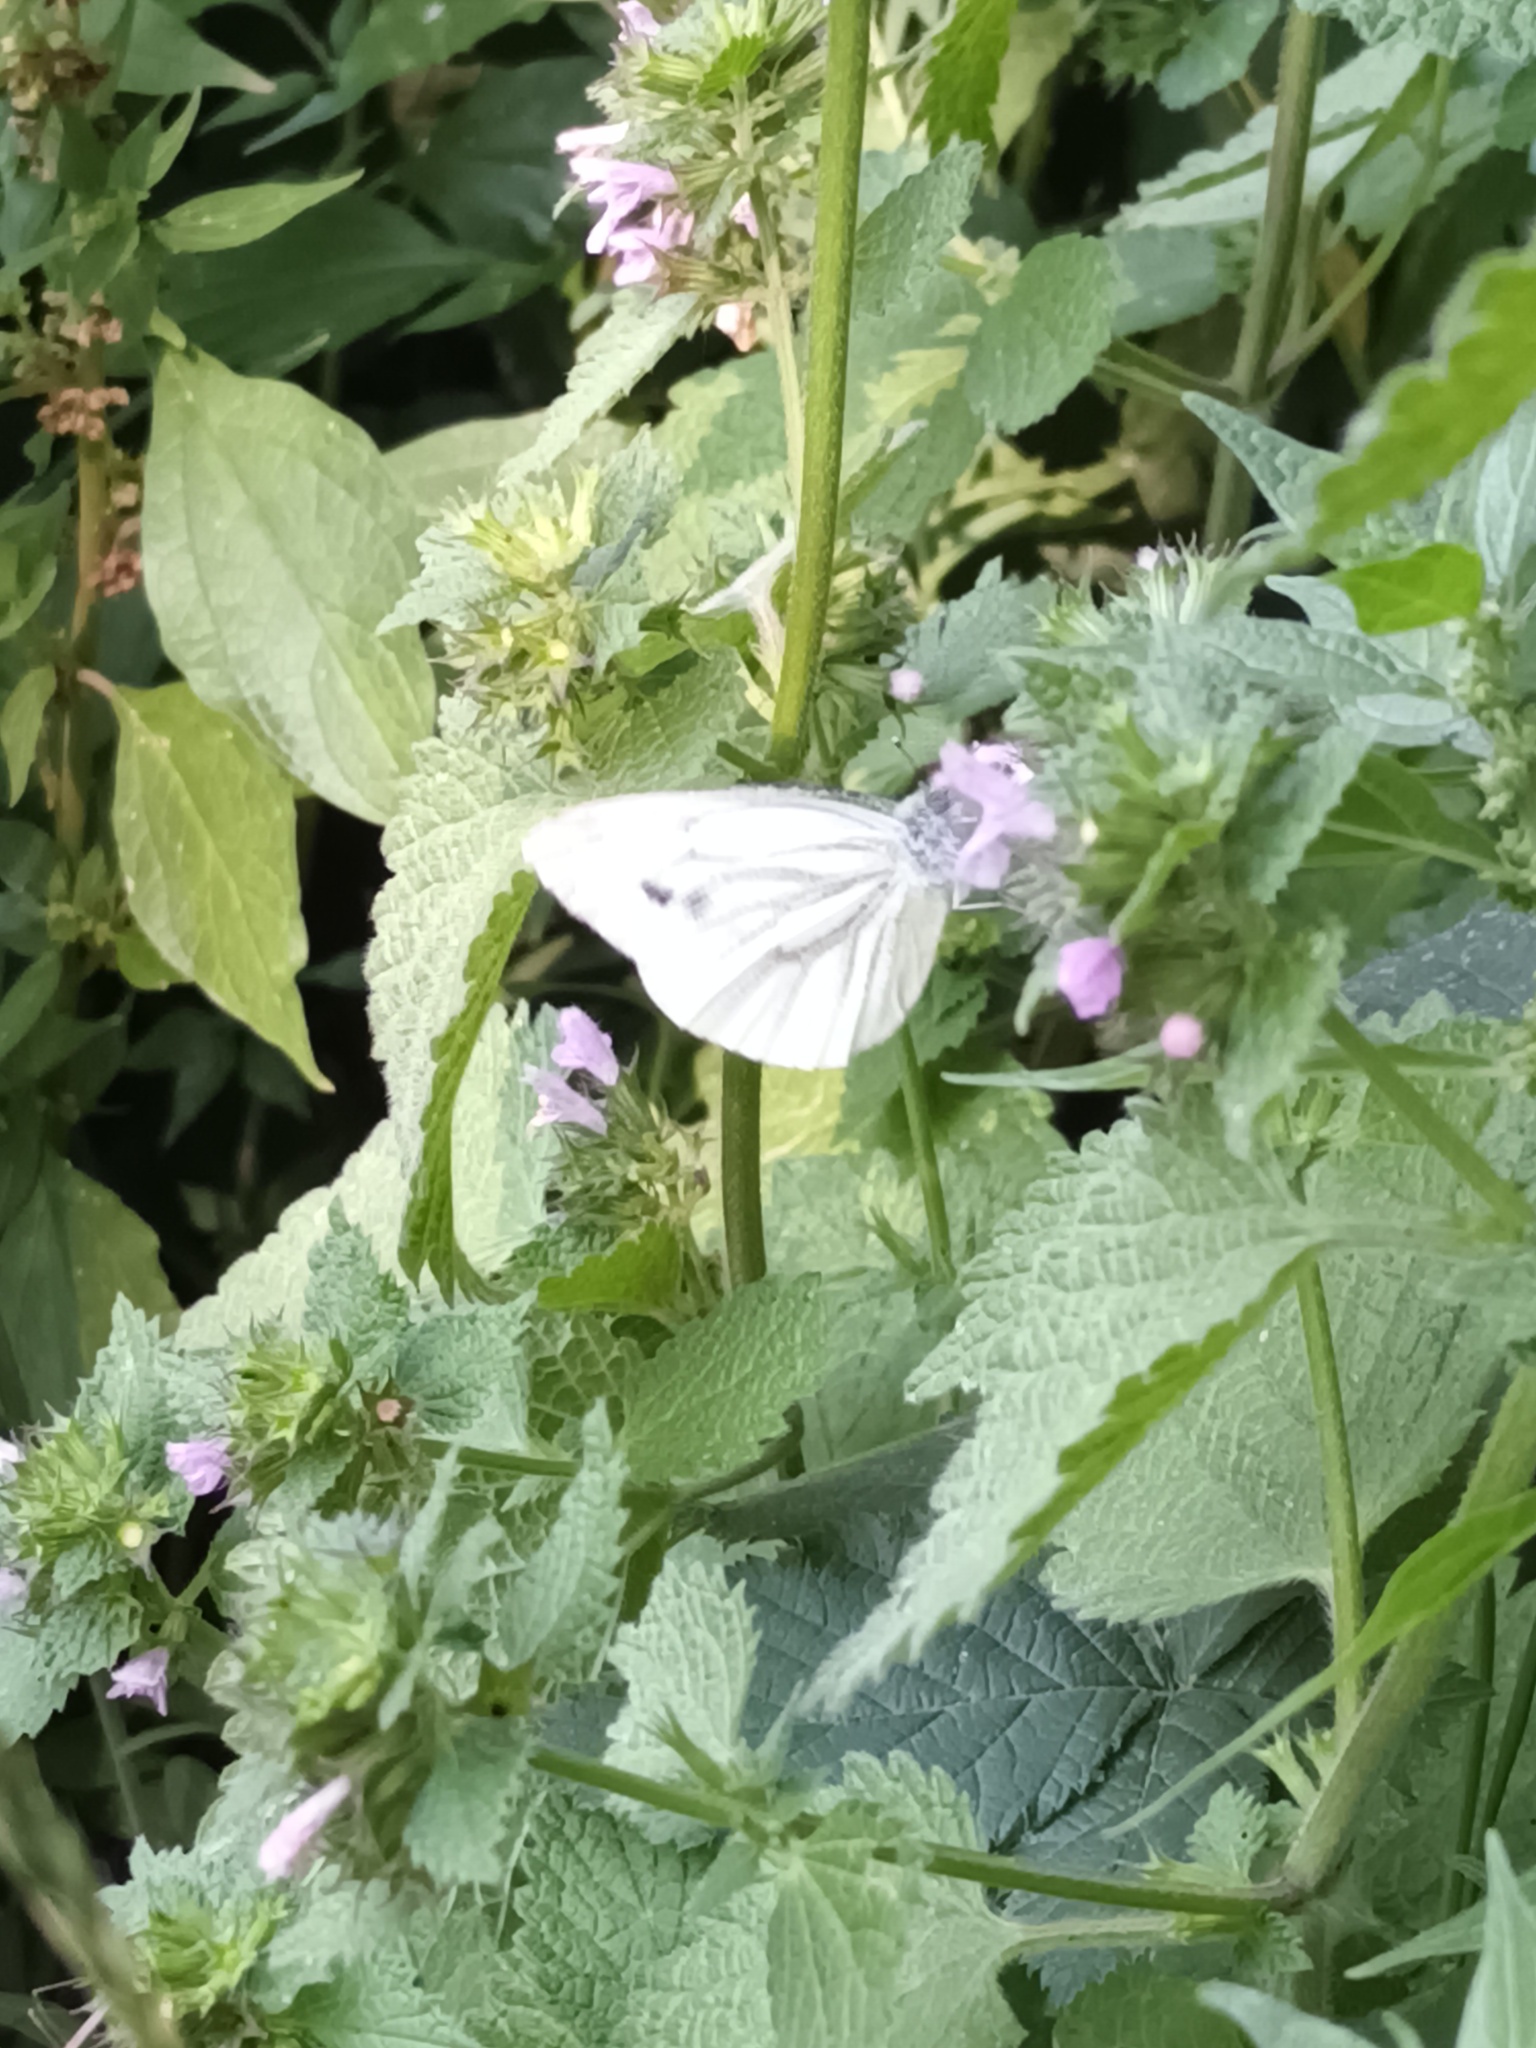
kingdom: Animalia
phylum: Arthropoda
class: Insecta
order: Lepidoptera
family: Pieridae
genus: Pieris
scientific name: Pieris napi
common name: Green-veined white
